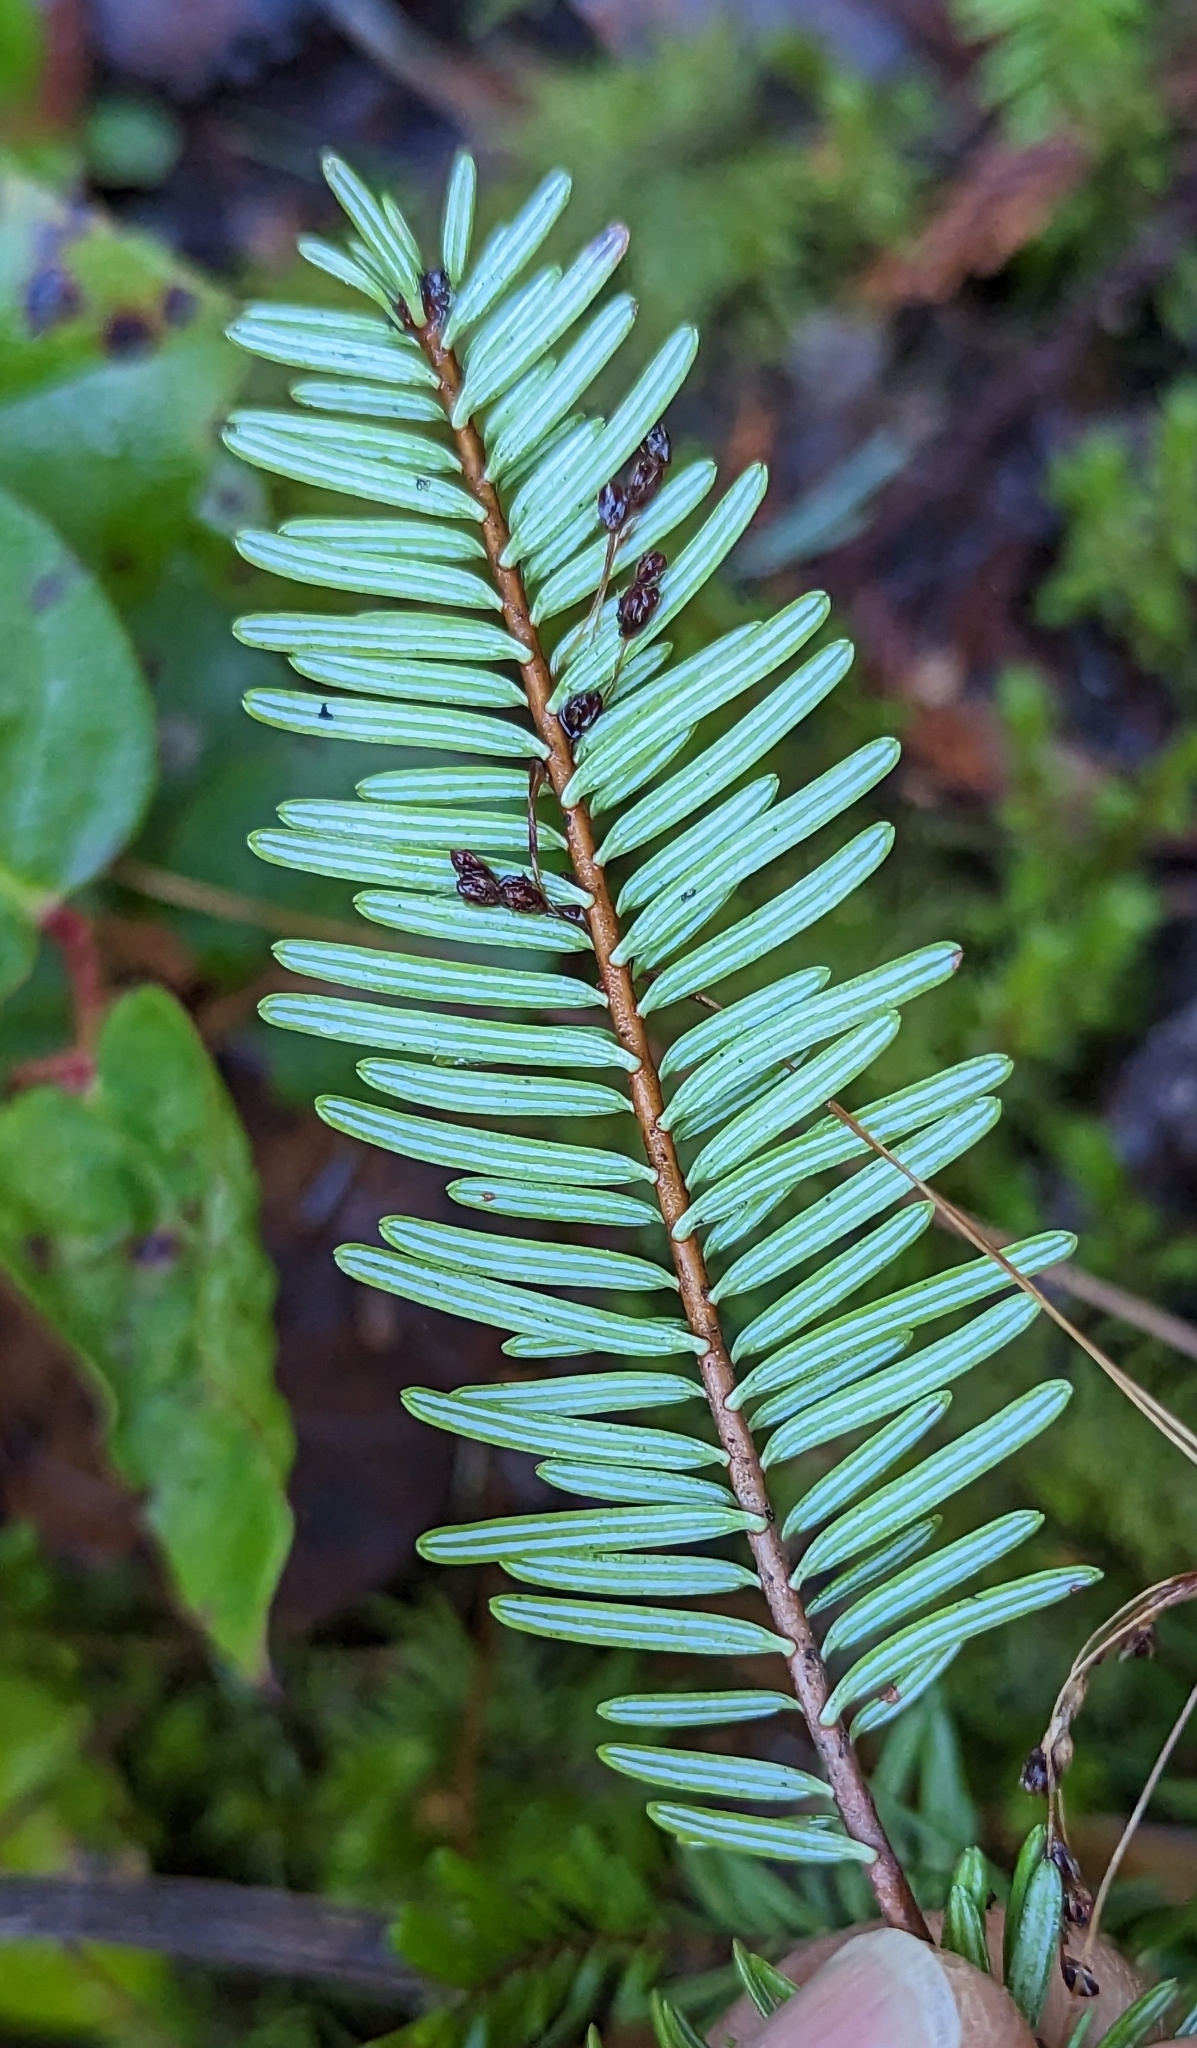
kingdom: Plantae
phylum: Tracheophyta
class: Pinopsida
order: Pinales
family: Pinaceae
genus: Abies
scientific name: Abies grandis
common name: Giant fir
